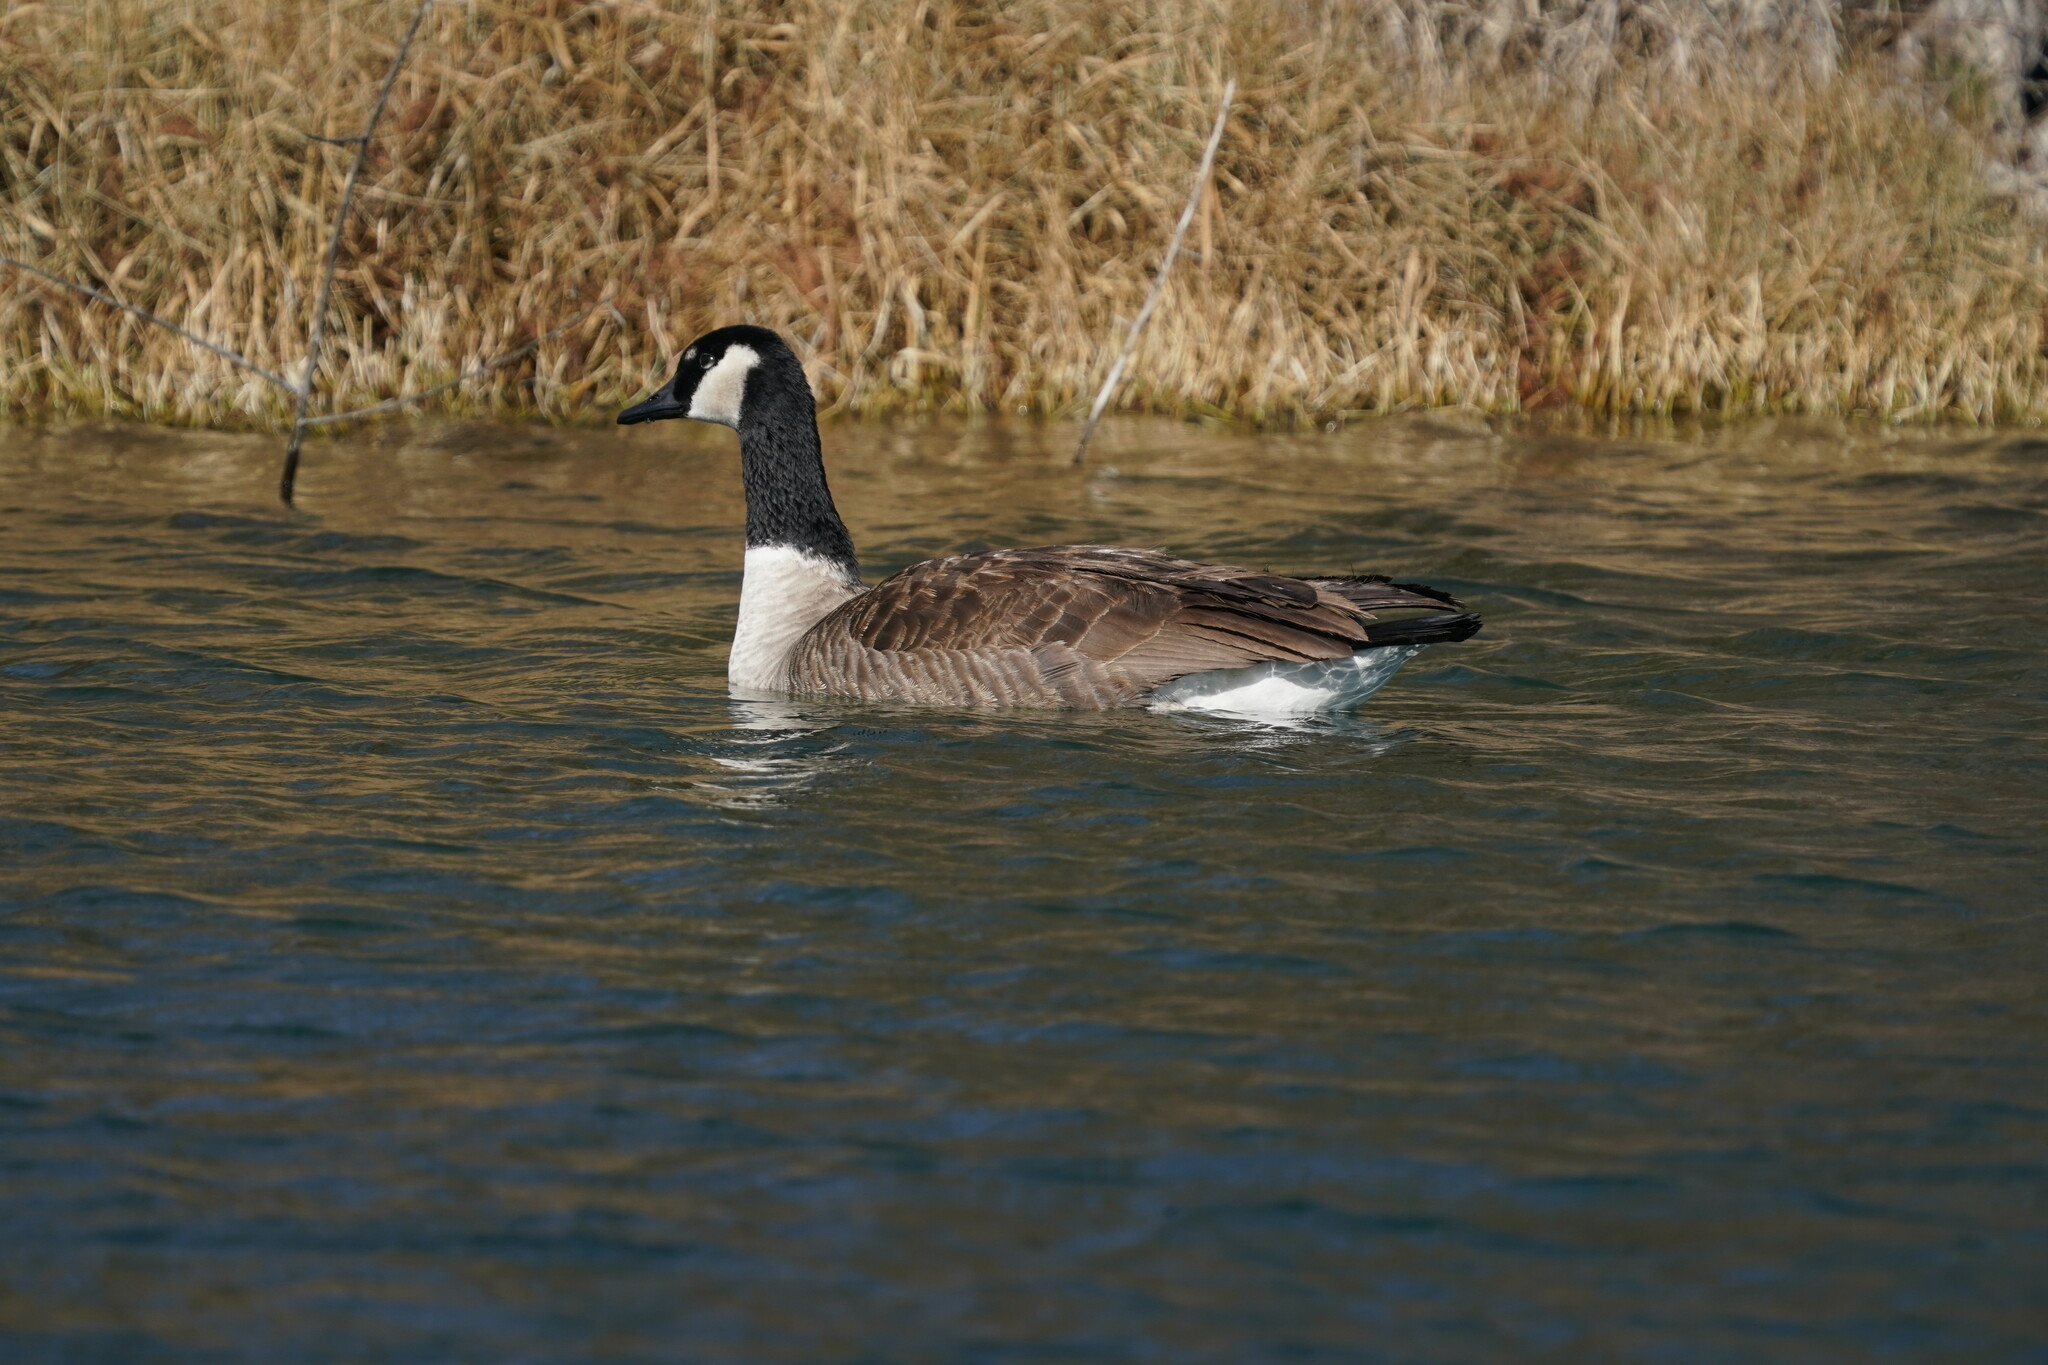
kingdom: Animalia
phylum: Chordata
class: Aves
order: Anseriformes
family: Anatidae
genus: Branta
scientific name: Branta canadensis
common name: Canada goose
